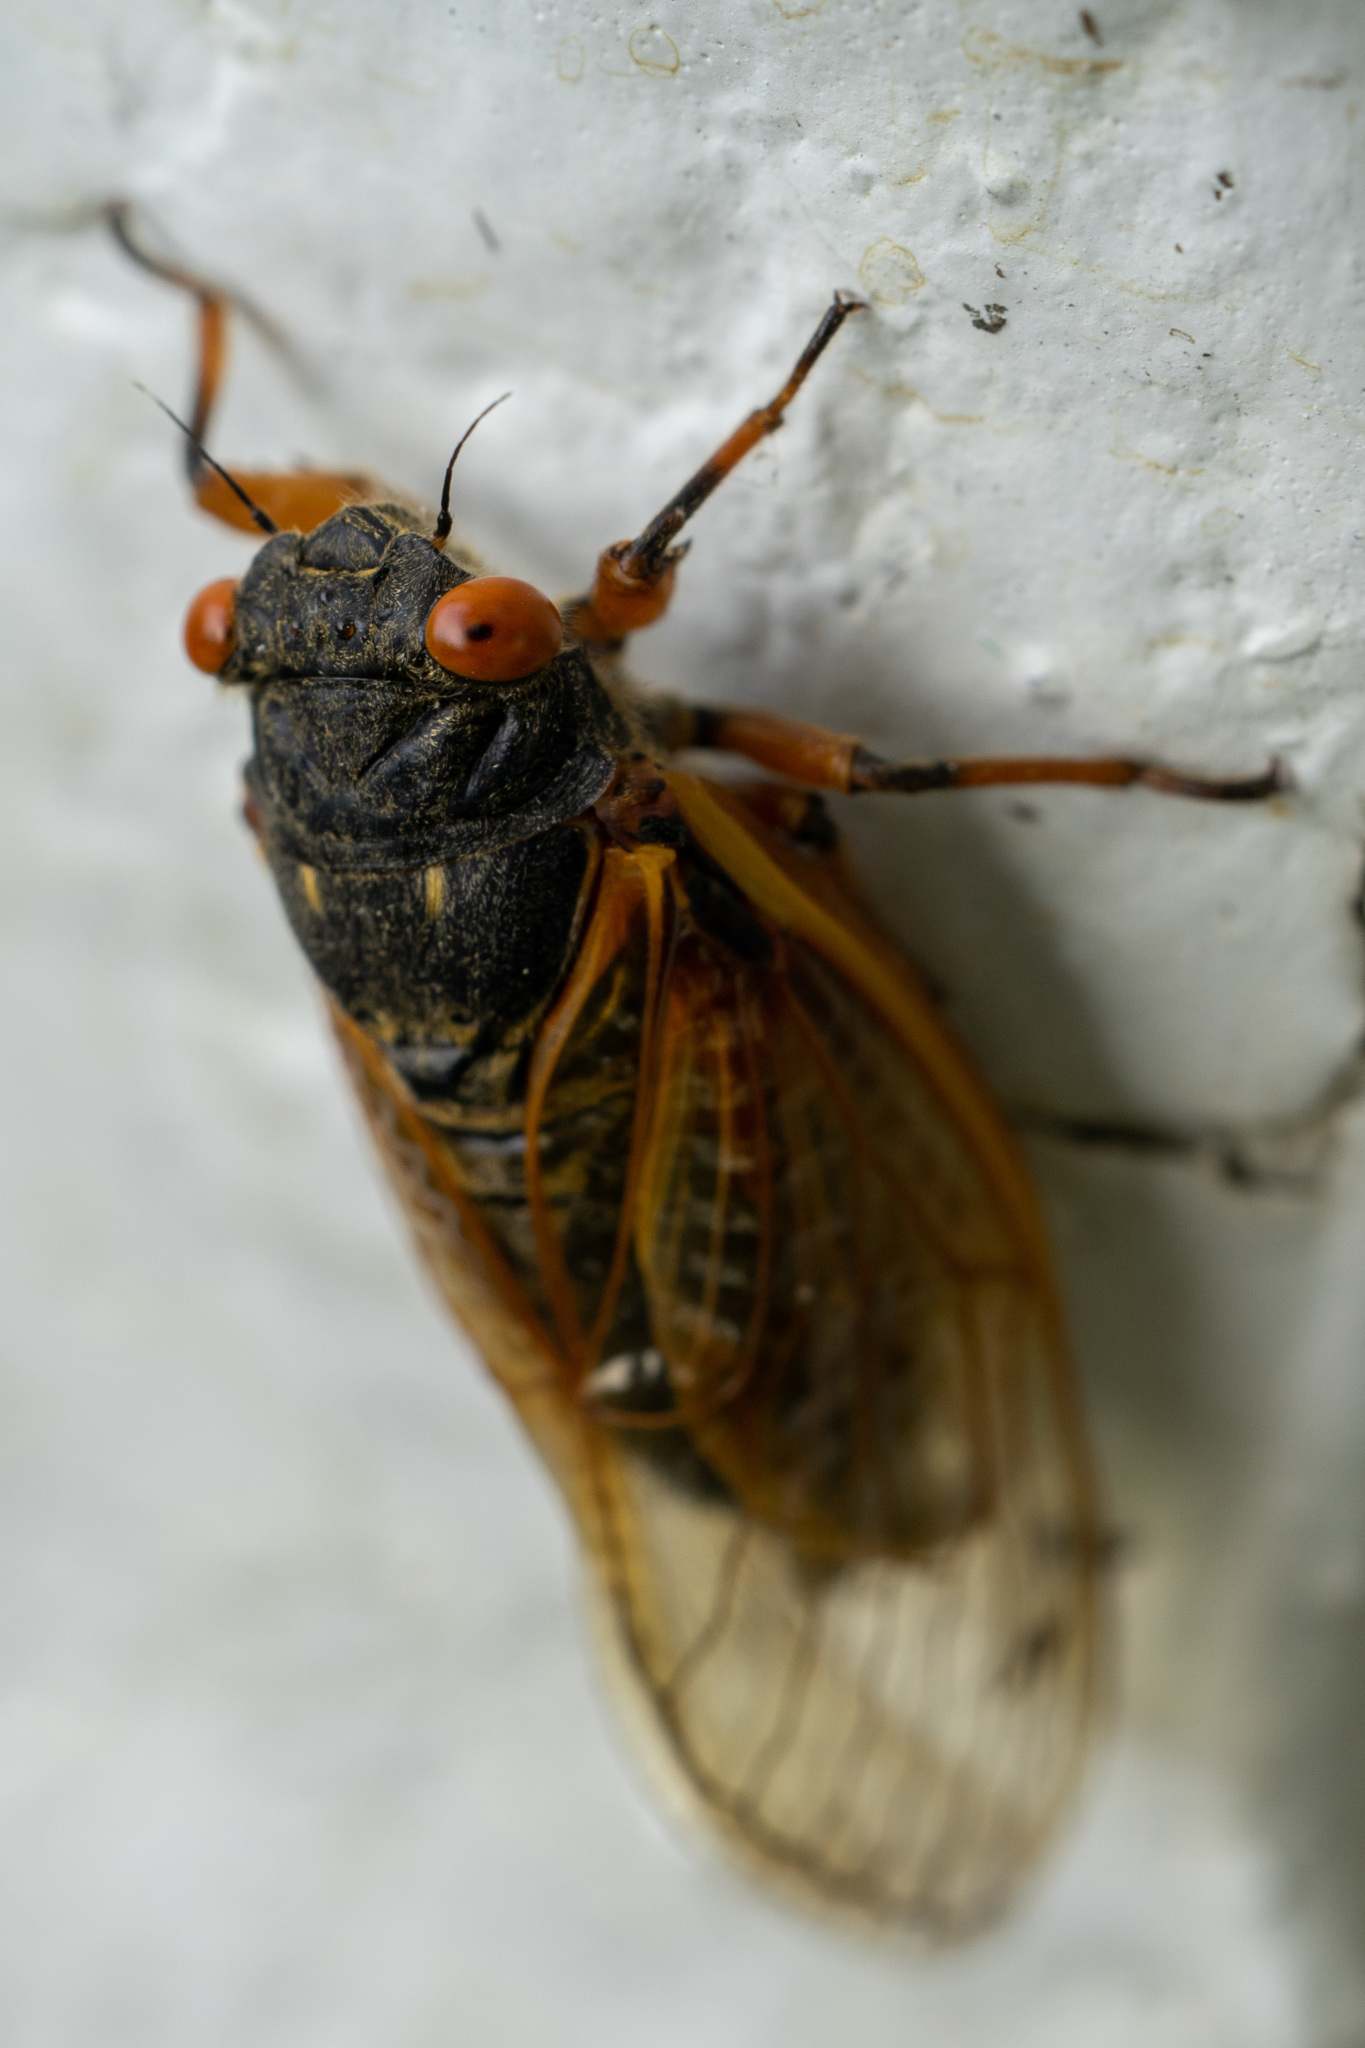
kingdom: Animalia
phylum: Arthropoda
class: Insecta
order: Hemiptera
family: Cicadidae
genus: Magicicada
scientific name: Magicicada
